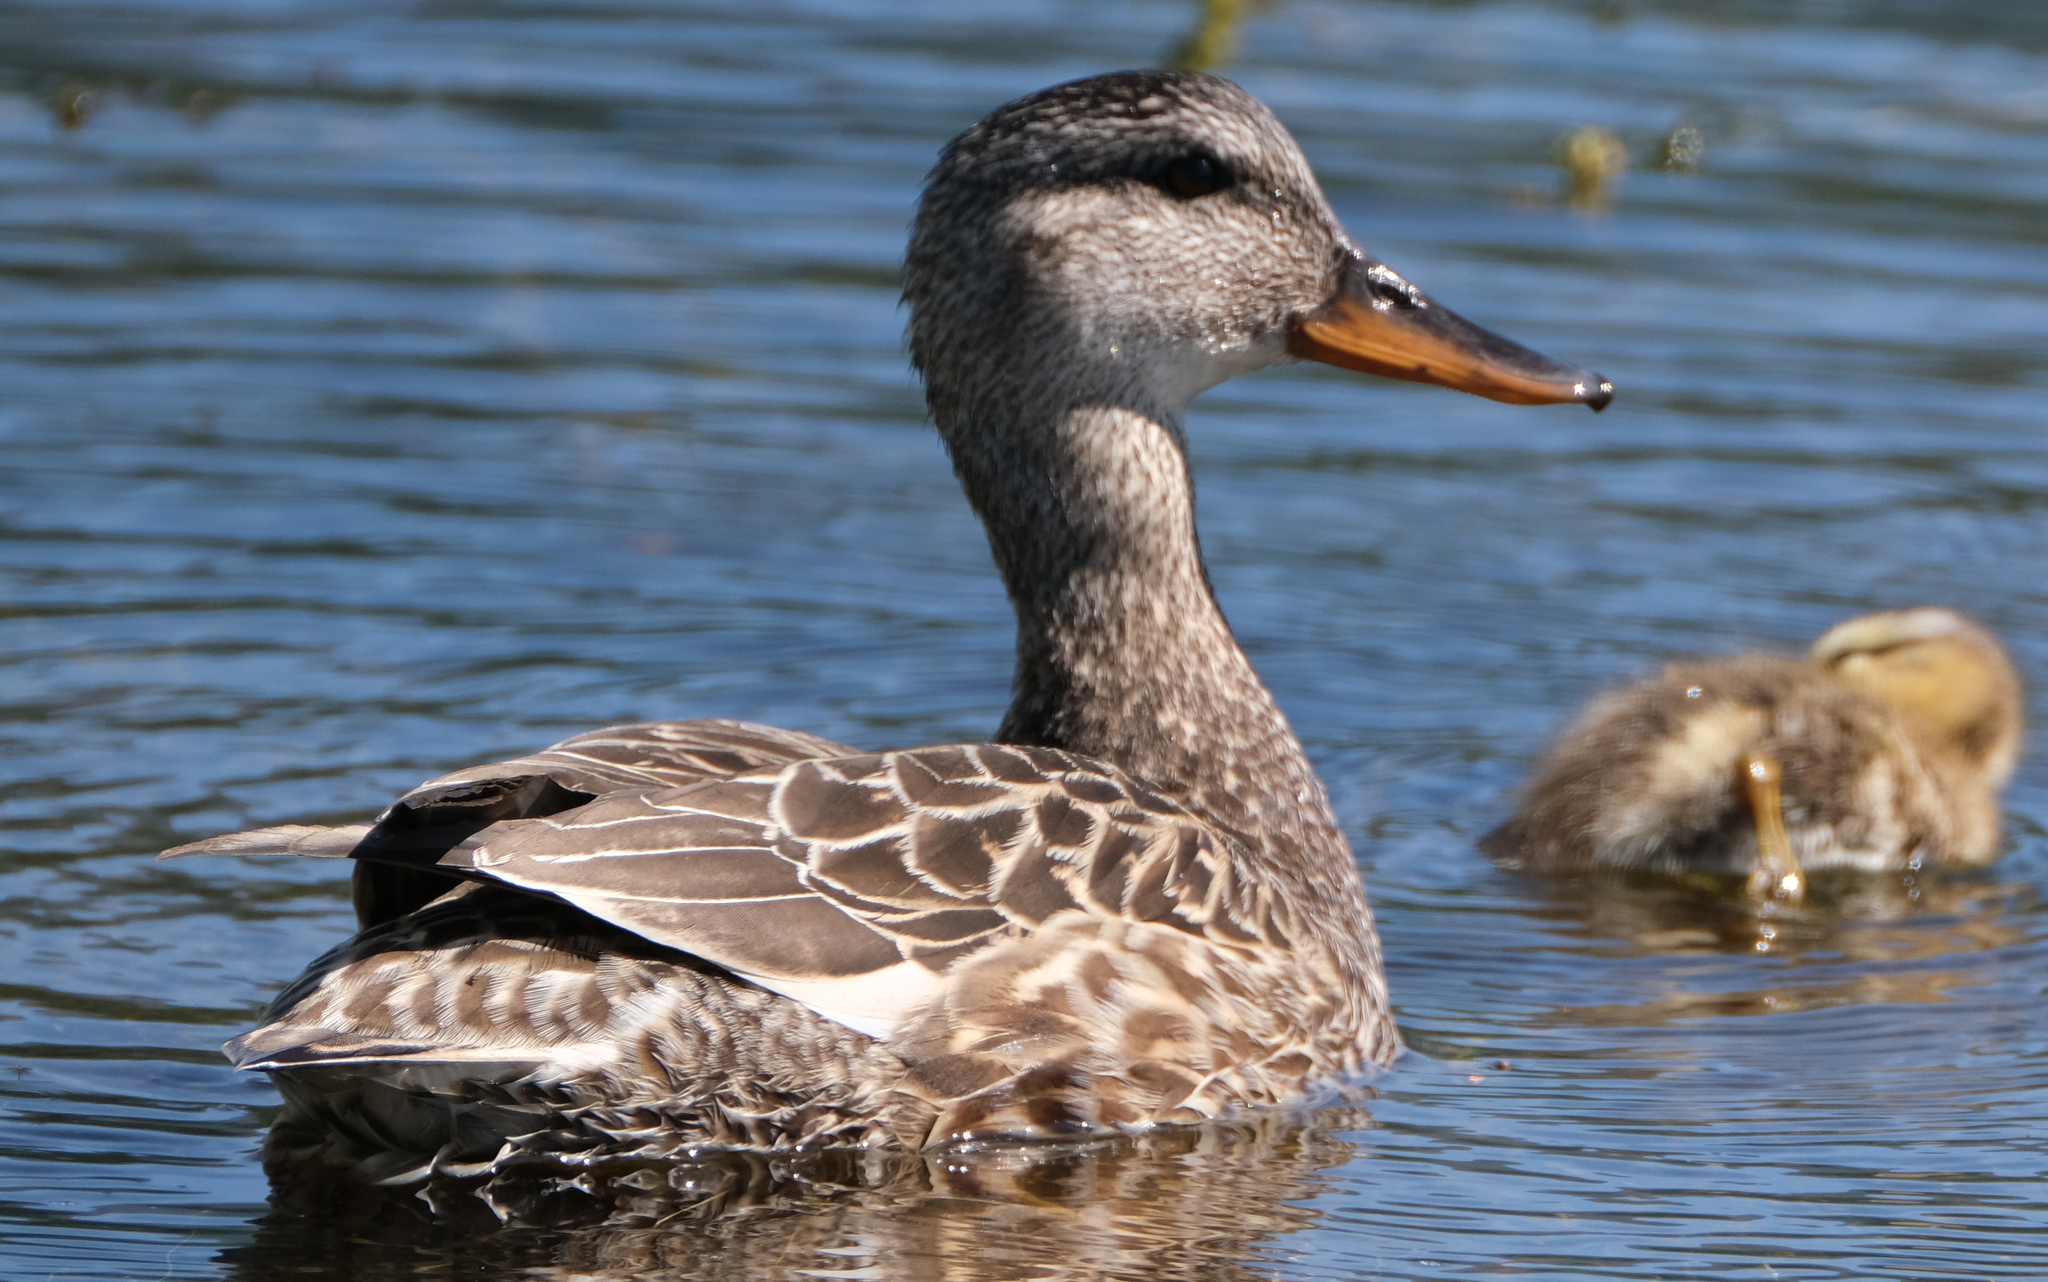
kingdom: Animalia
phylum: Chordata
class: Aves
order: Anseriformes
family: Anatidae
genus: Mareca
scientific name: Mareca strepera
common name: Gadwall
